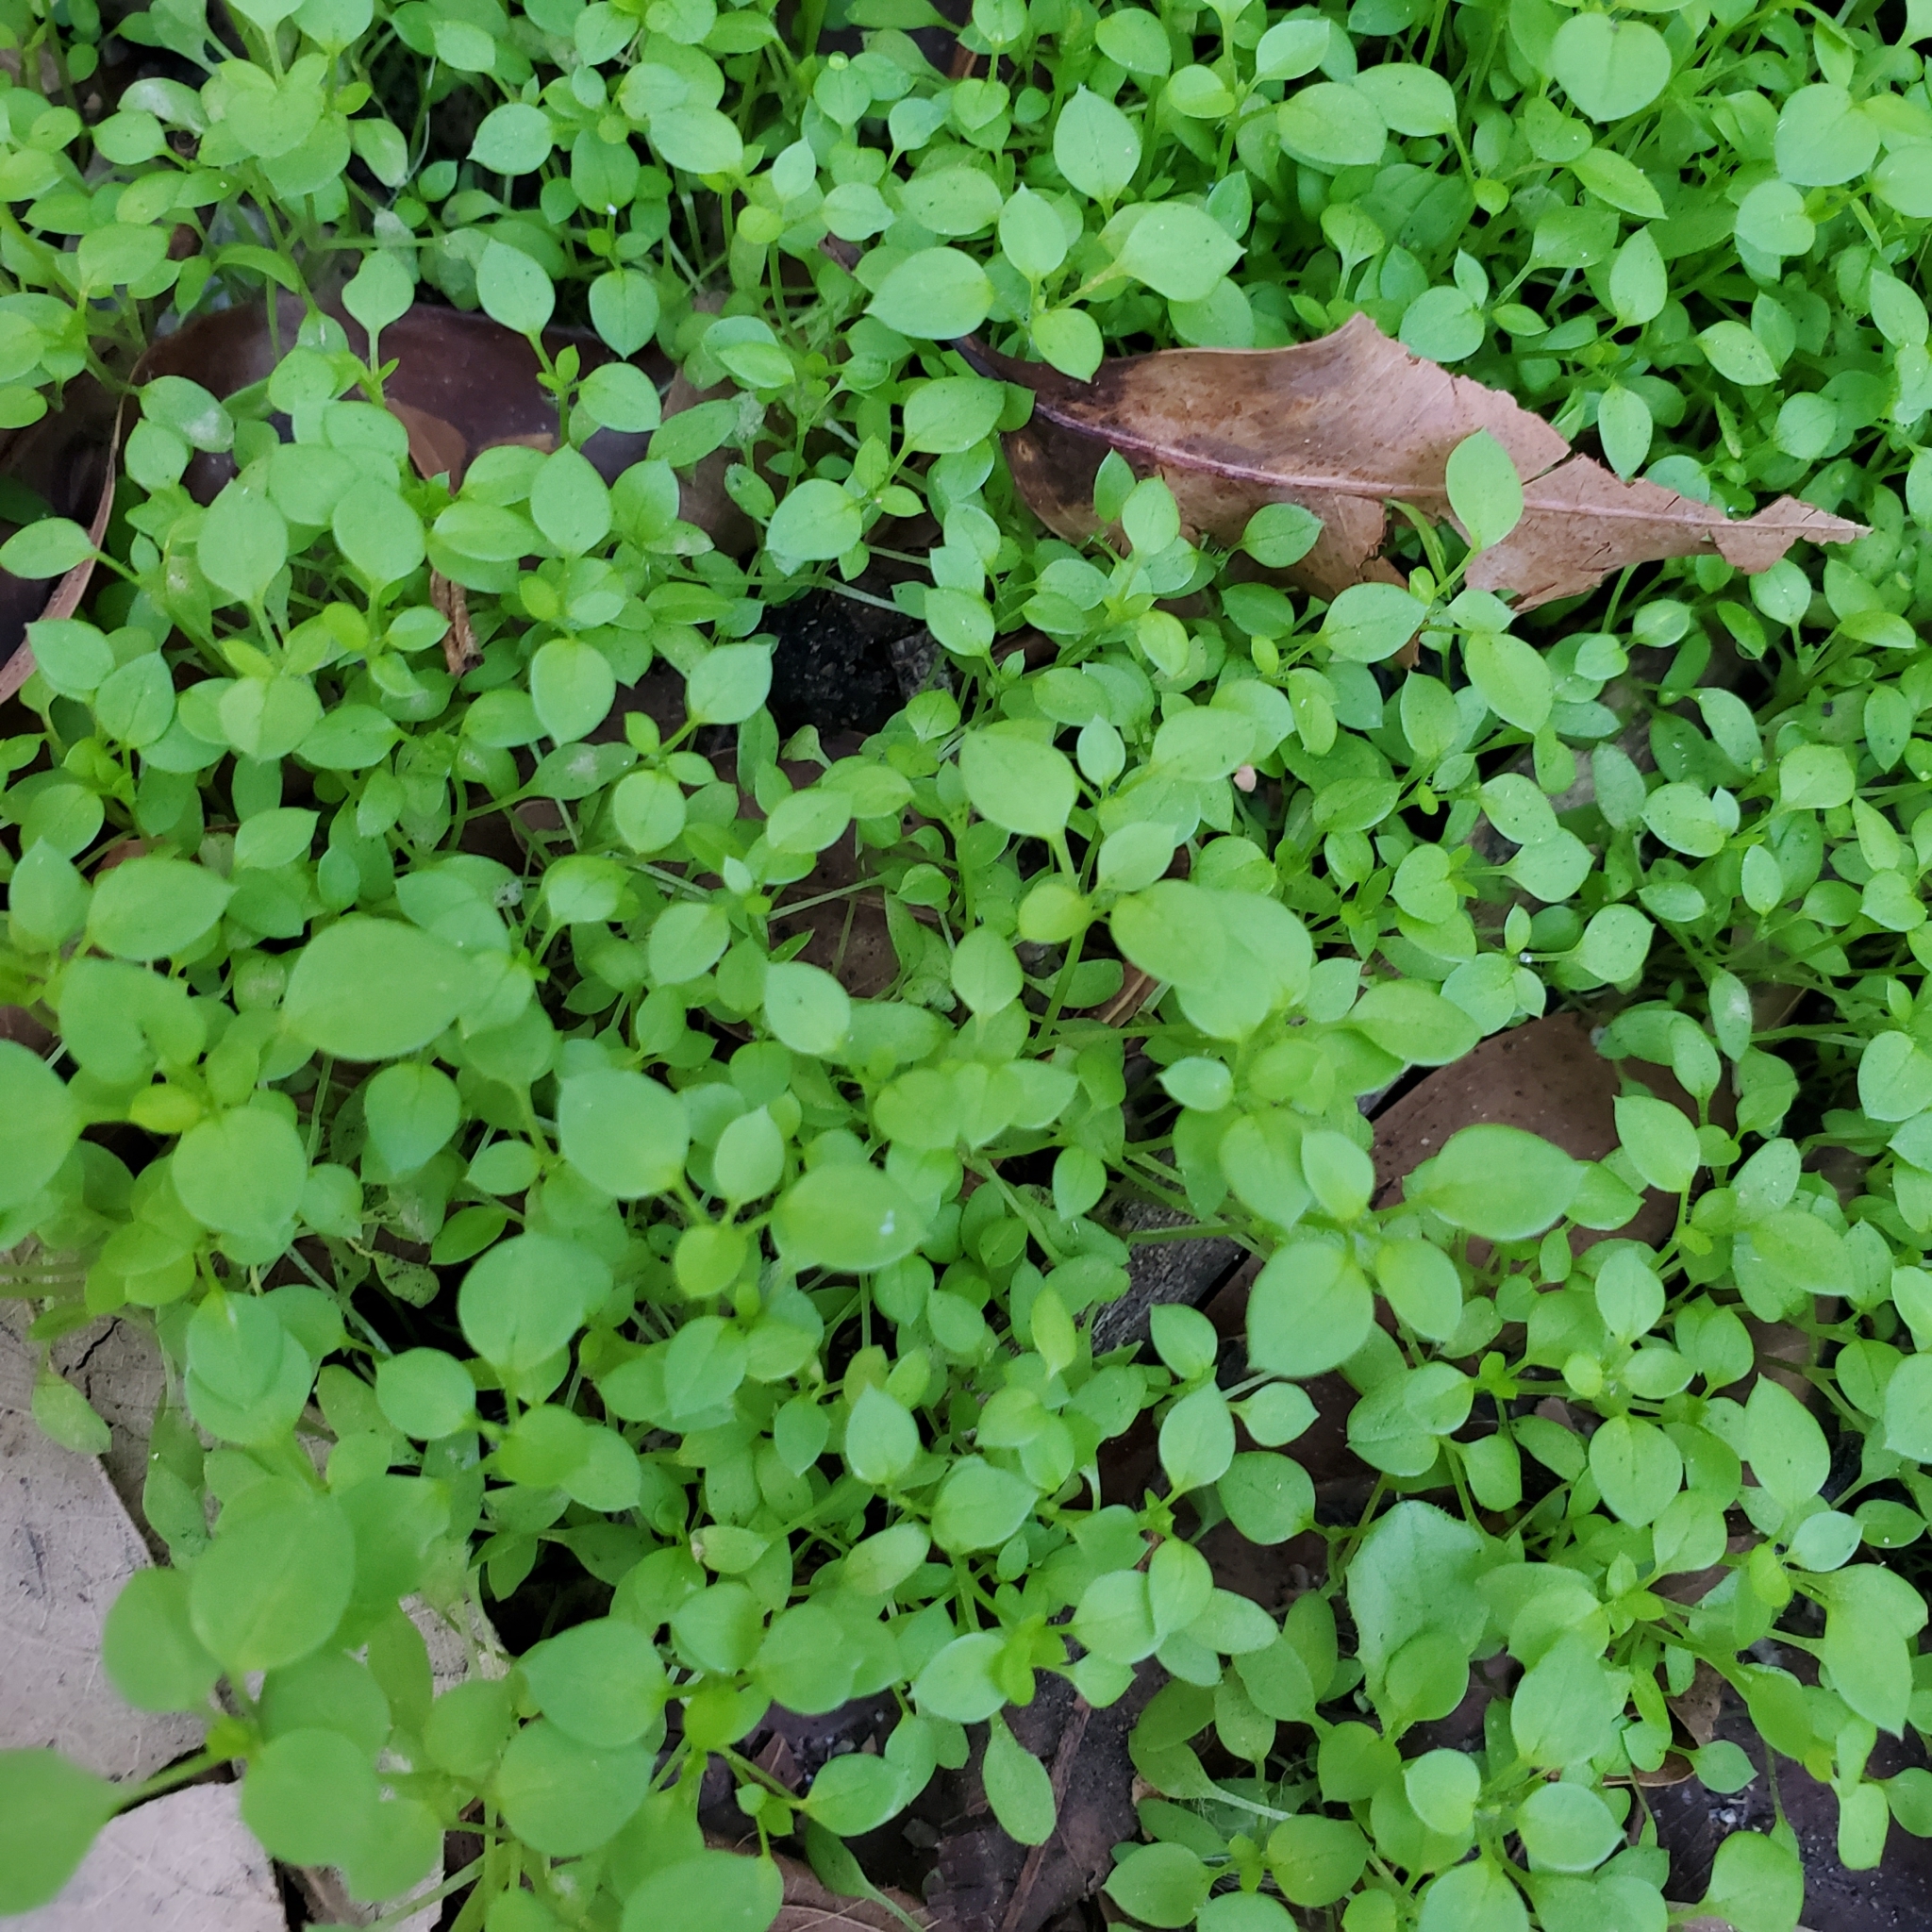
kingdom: Plantae
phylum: Tracheophyta
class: Magnoliopsida
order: Caryophyllales
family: Caryophyllaceae
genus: Stellaria
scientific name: Stellaria media
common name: Common chickweed
